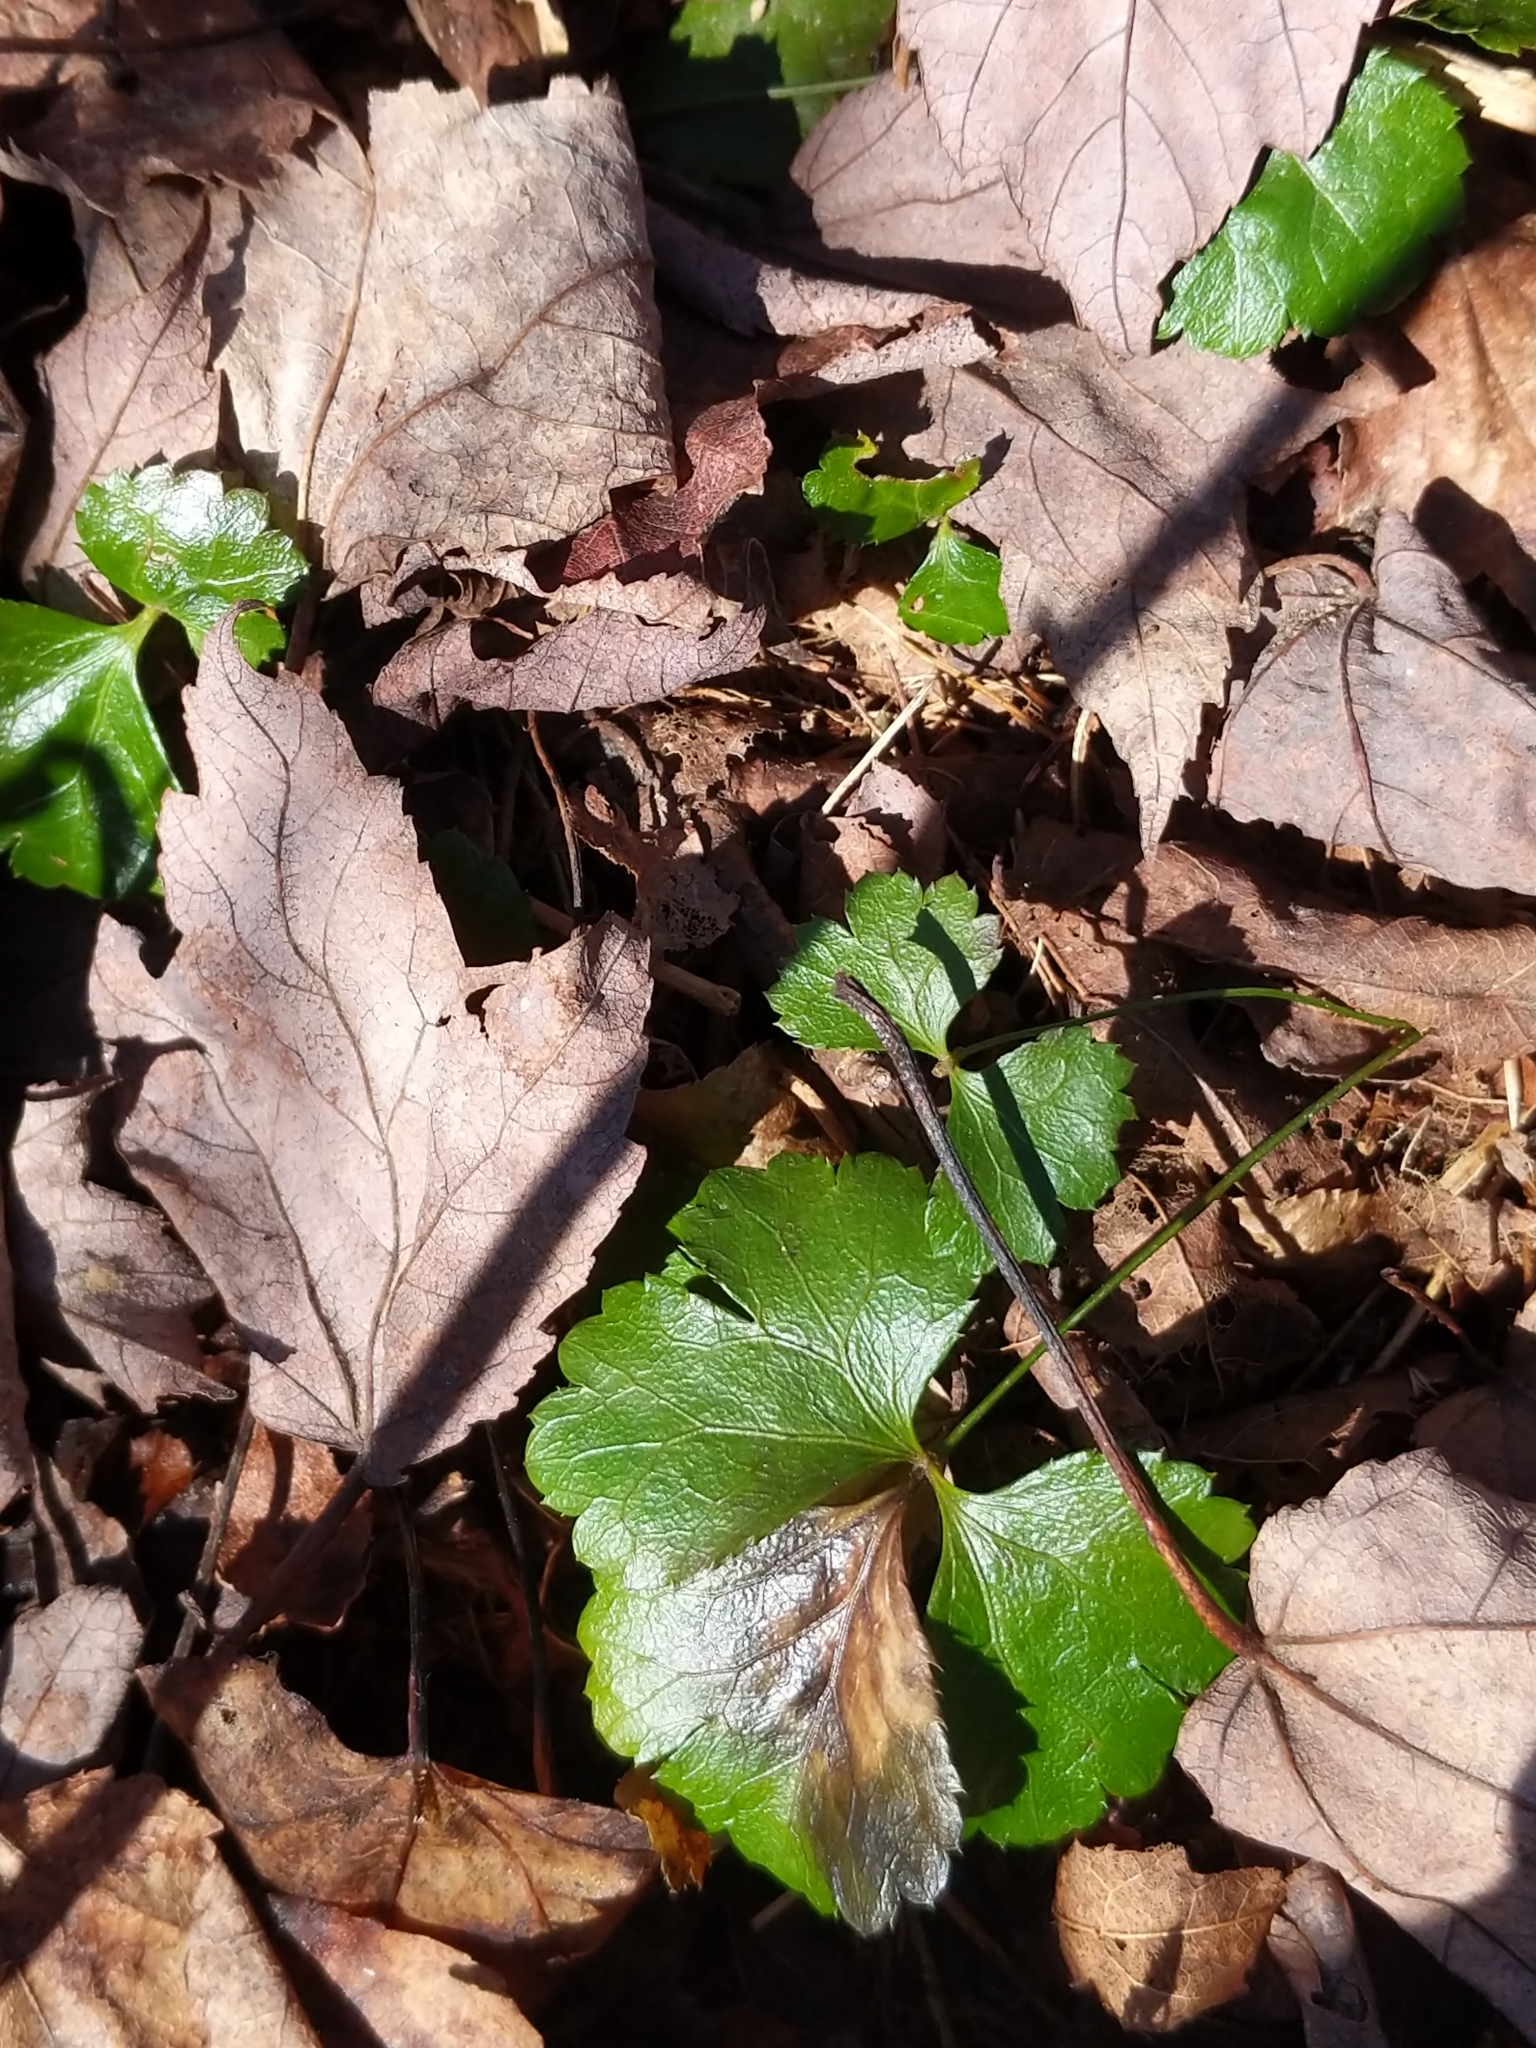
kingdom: Plantae
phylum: Tracheophyta
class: Magnoliopsida
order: Ranunculales
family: Ranunculaceae
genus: Coptis
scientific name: Coptis trifolia
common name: Canker-root
